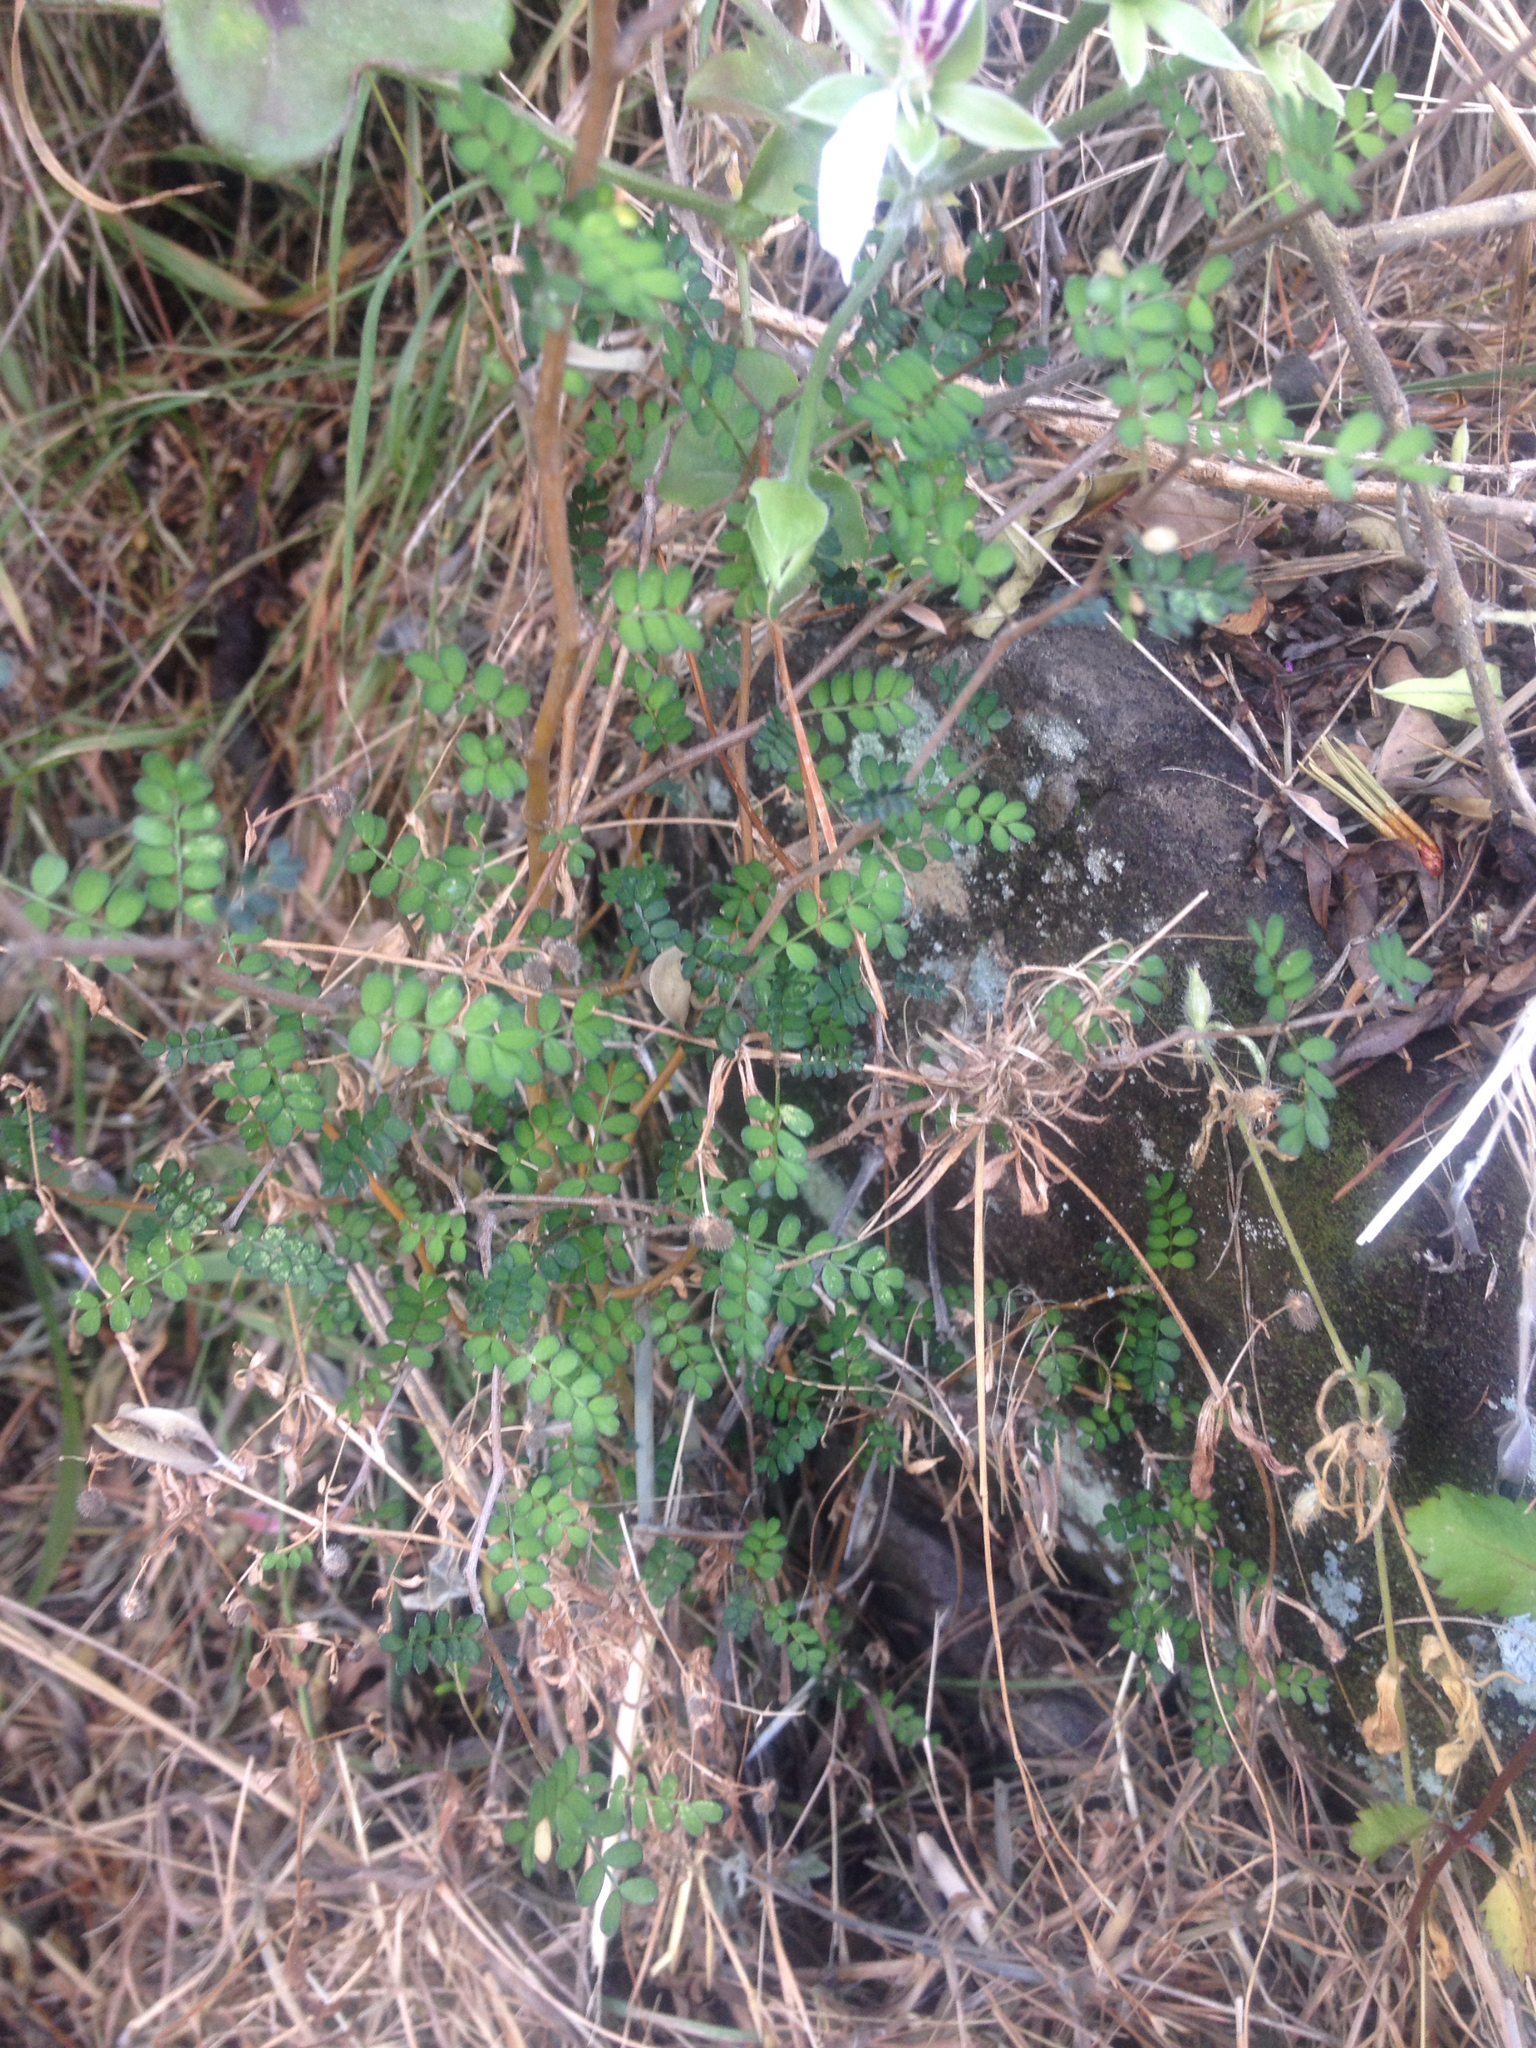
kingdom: Plantae
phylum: Tracheophyta
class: Magnoliopsida
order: Fabales
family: Fabaceae
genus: Sophora
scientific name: Sophora prostrata
